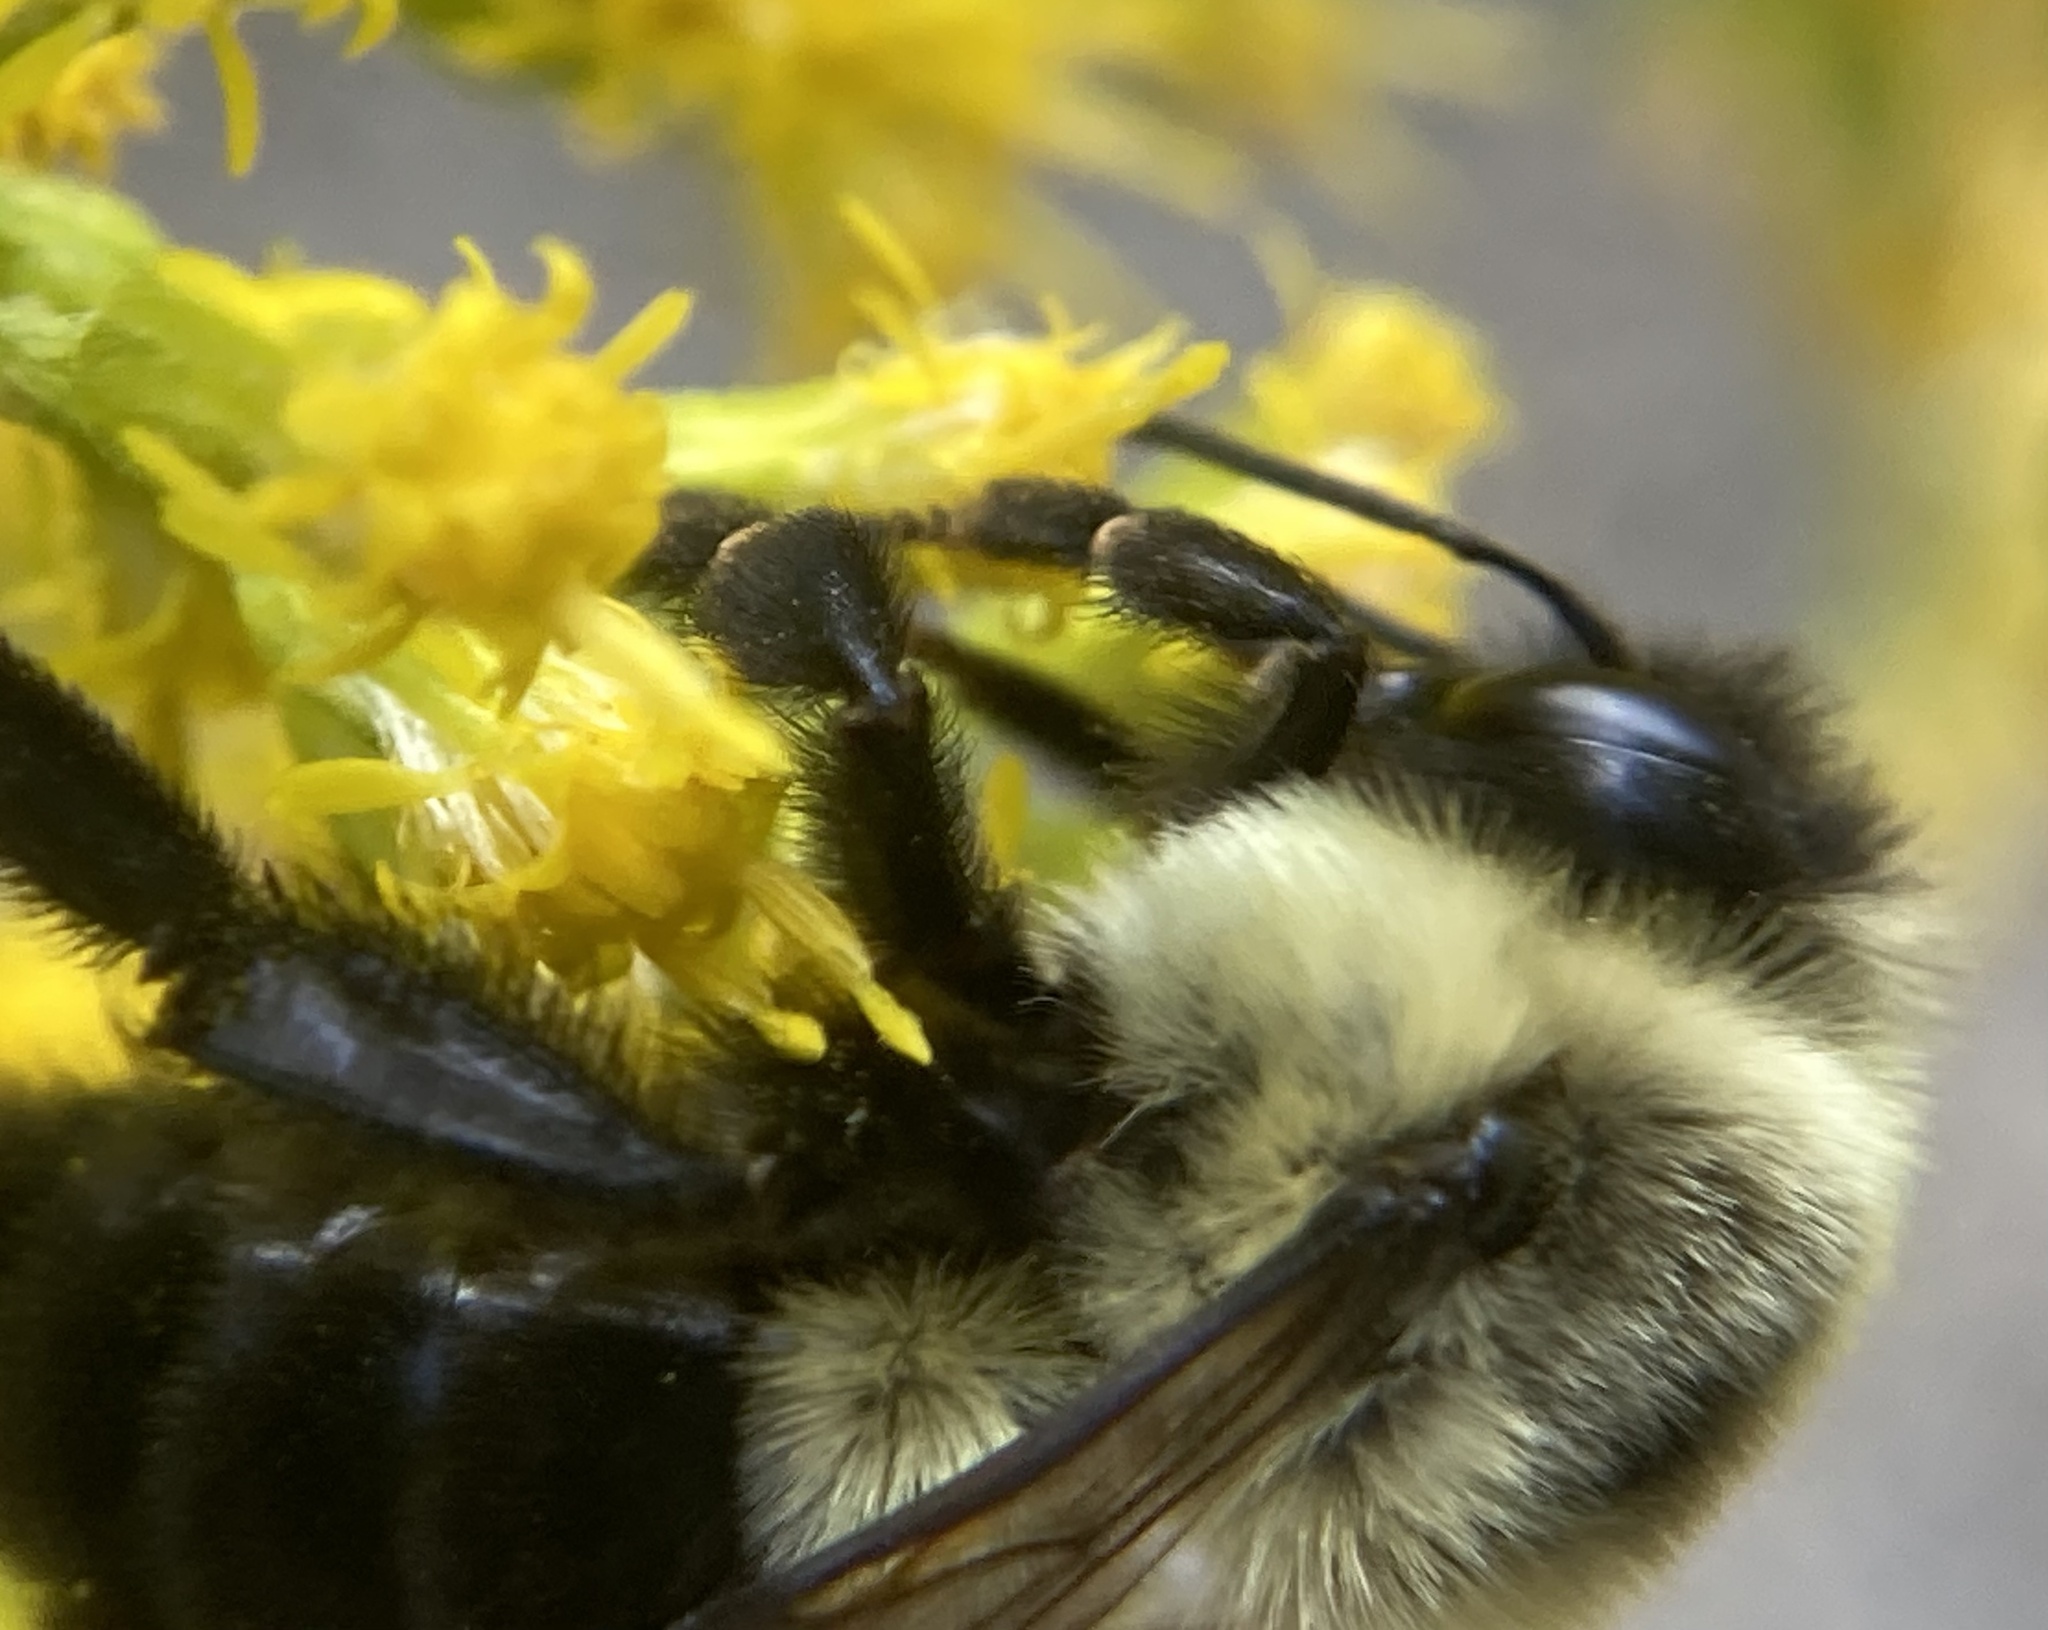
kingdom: Animalia
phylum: Arthropoda
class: Insecta
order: Hymenoptera
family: Apidae
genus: Bombus
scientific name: Bombus impatiens
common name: Common eastern bumble bee
